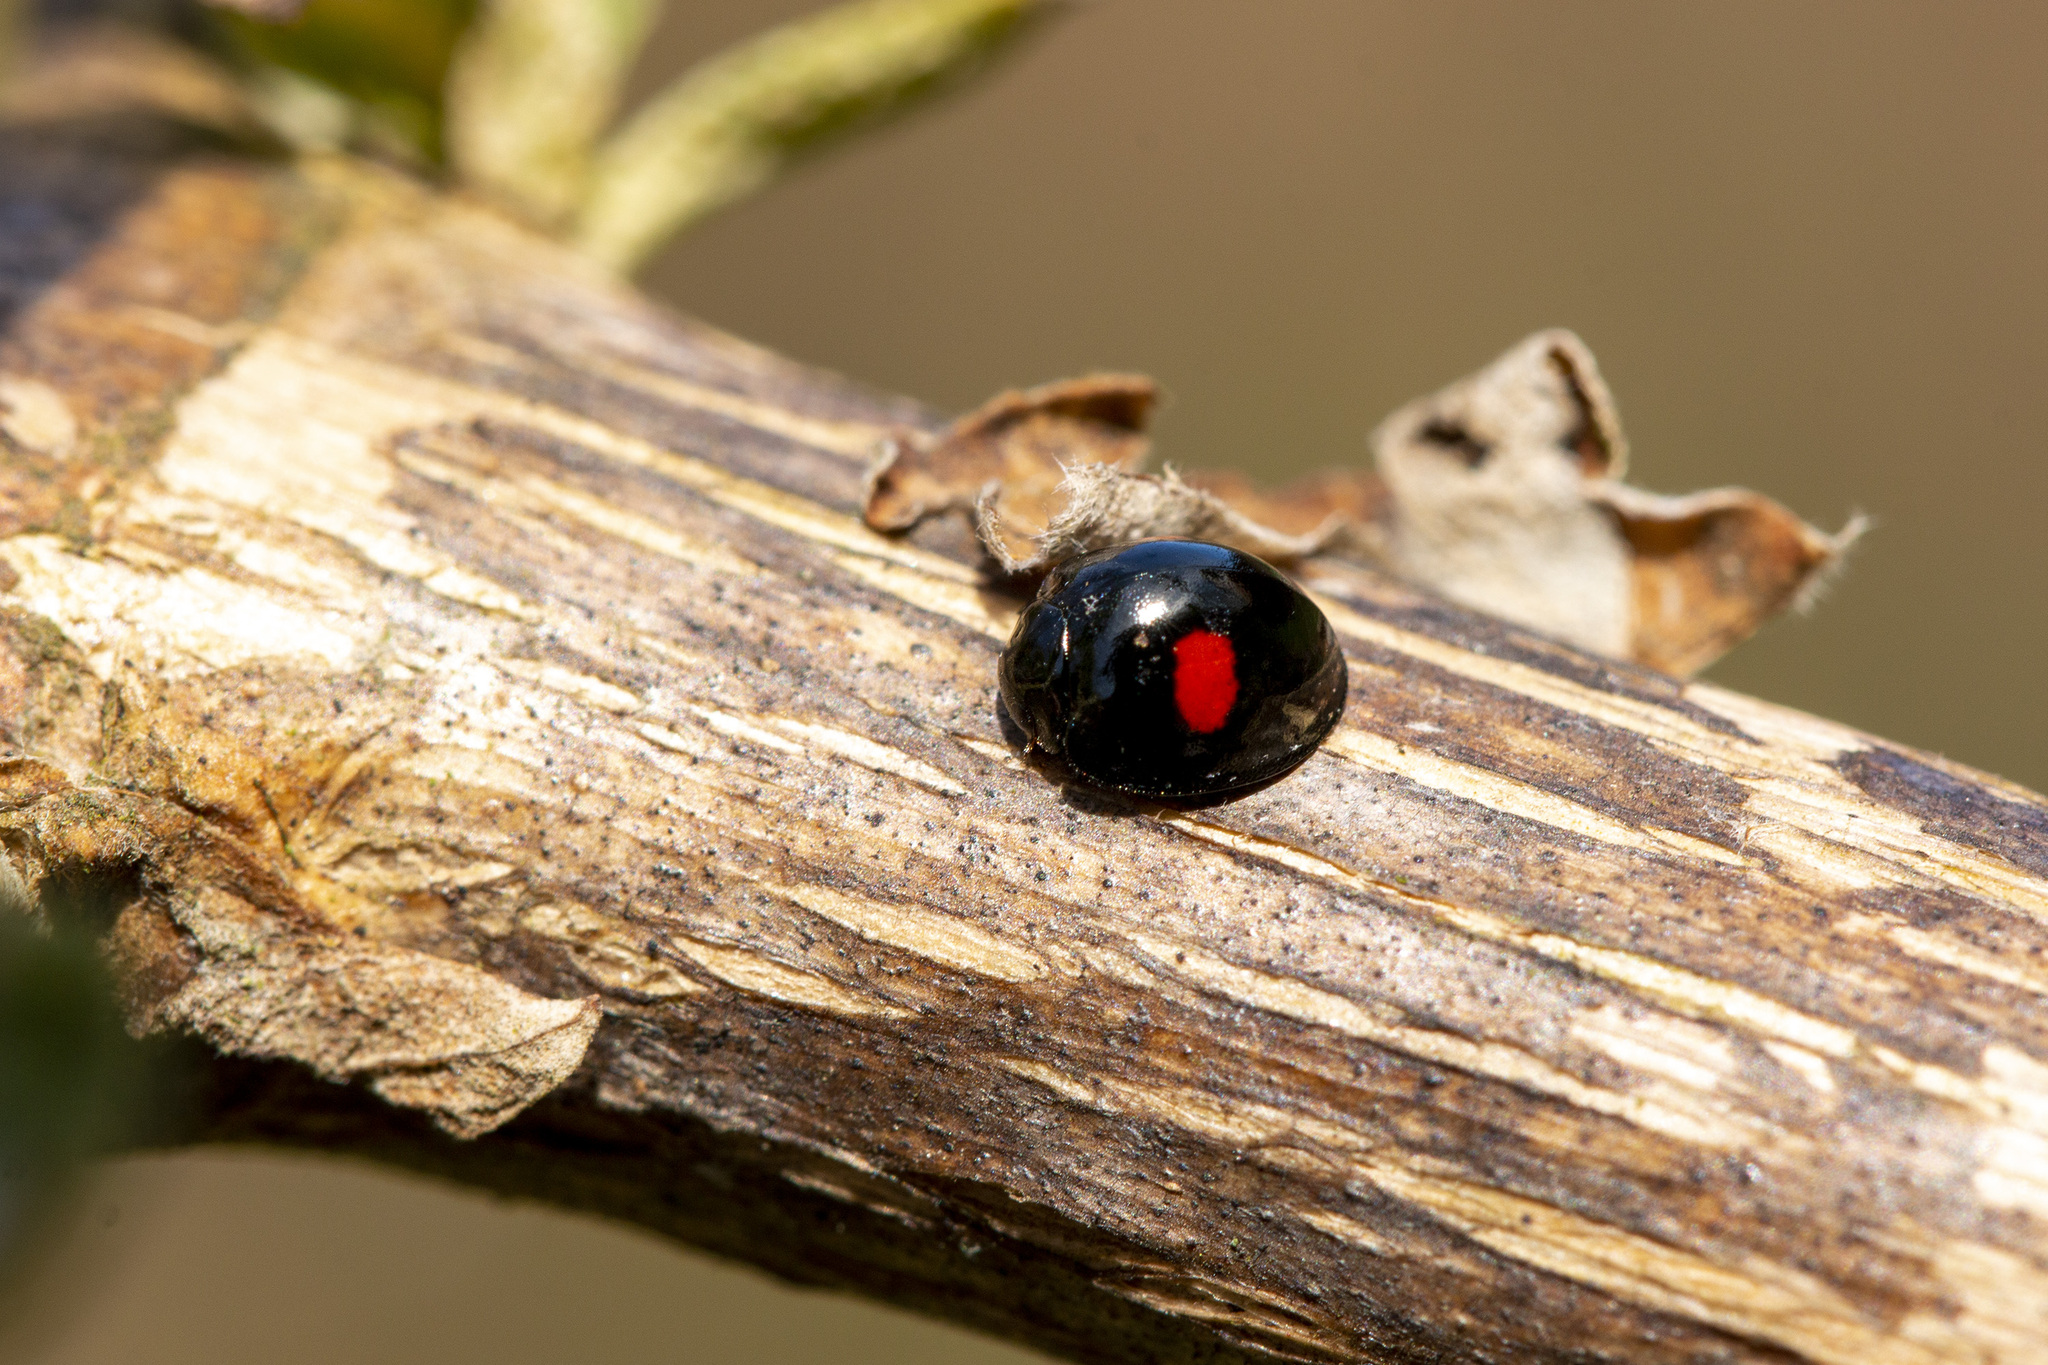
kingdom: Animalia
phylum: Arthropoda
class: Insecta
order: Coleoptera
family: Coccinellidae
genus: Chilocorus
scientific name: Chilocorus renipustulatus
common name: Kidney-spot ladybird
